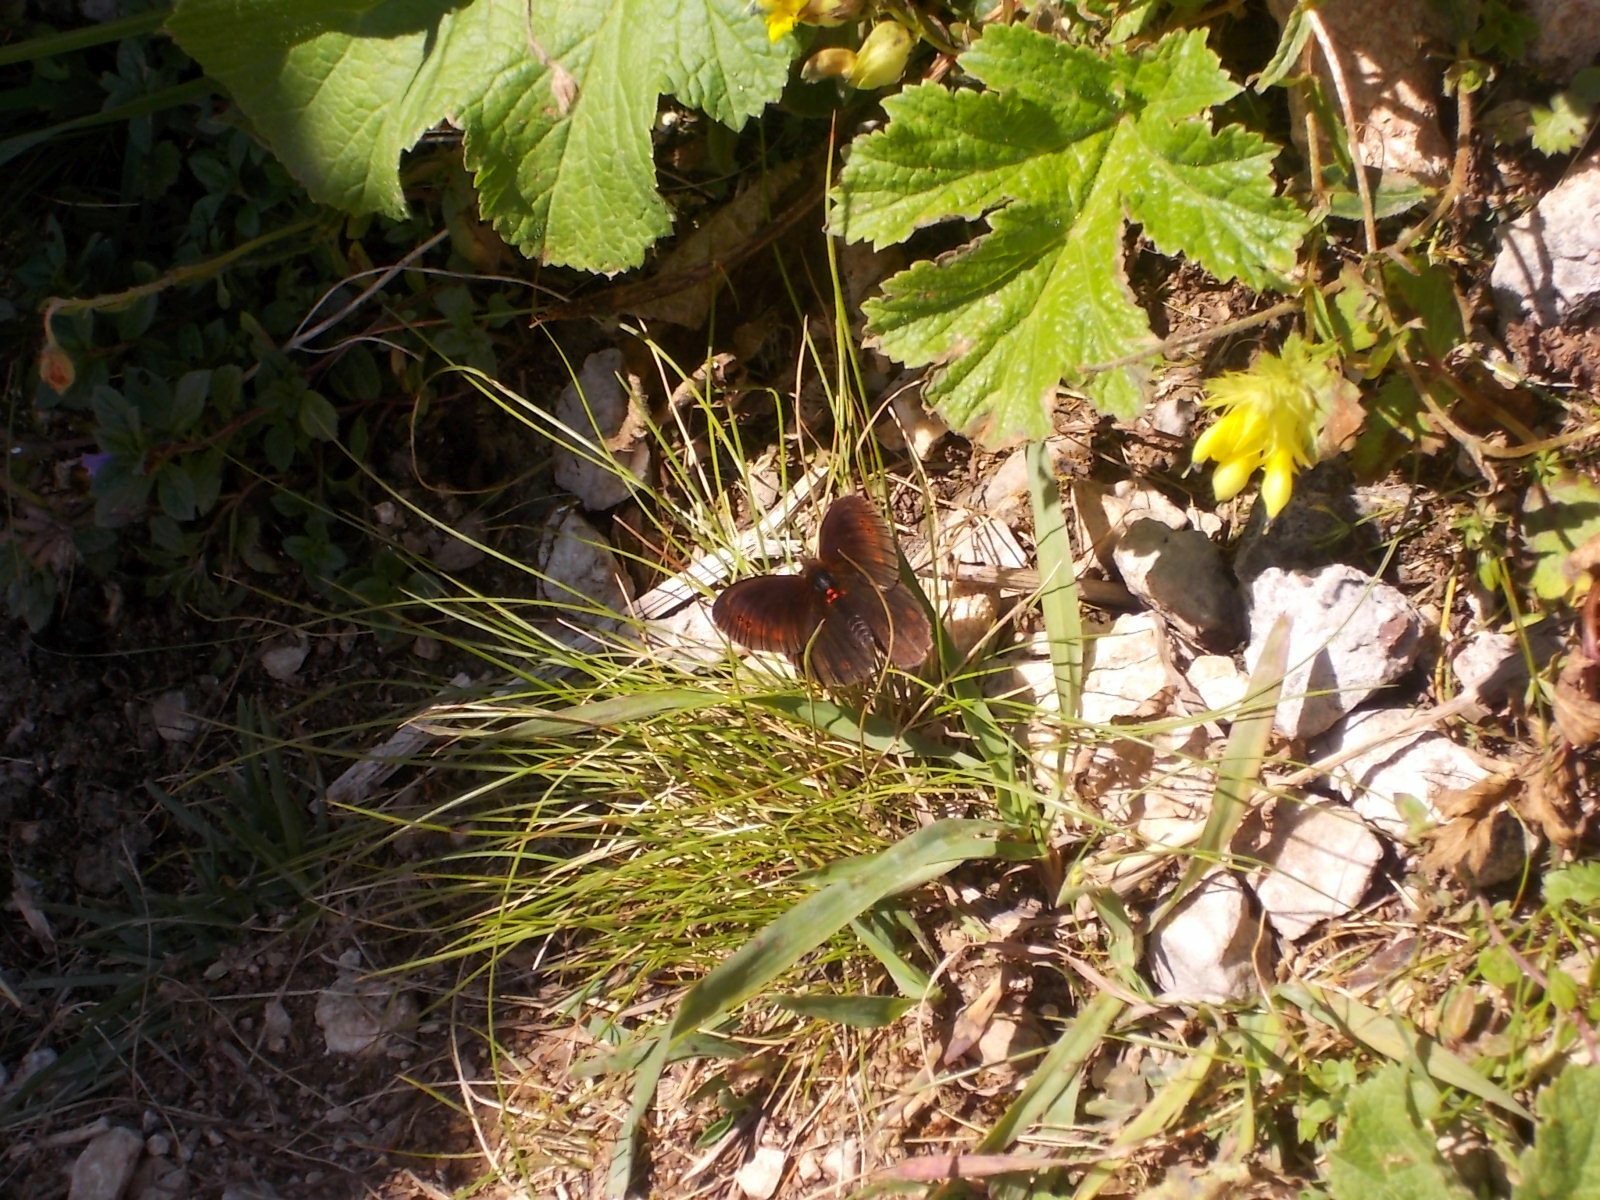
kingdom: Animalia
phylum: Arthropoda
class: Insecta
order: Lepidoptera
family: Nymphalidae
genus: Erebia
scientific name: Erebia pronoe
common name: Water ringlet
